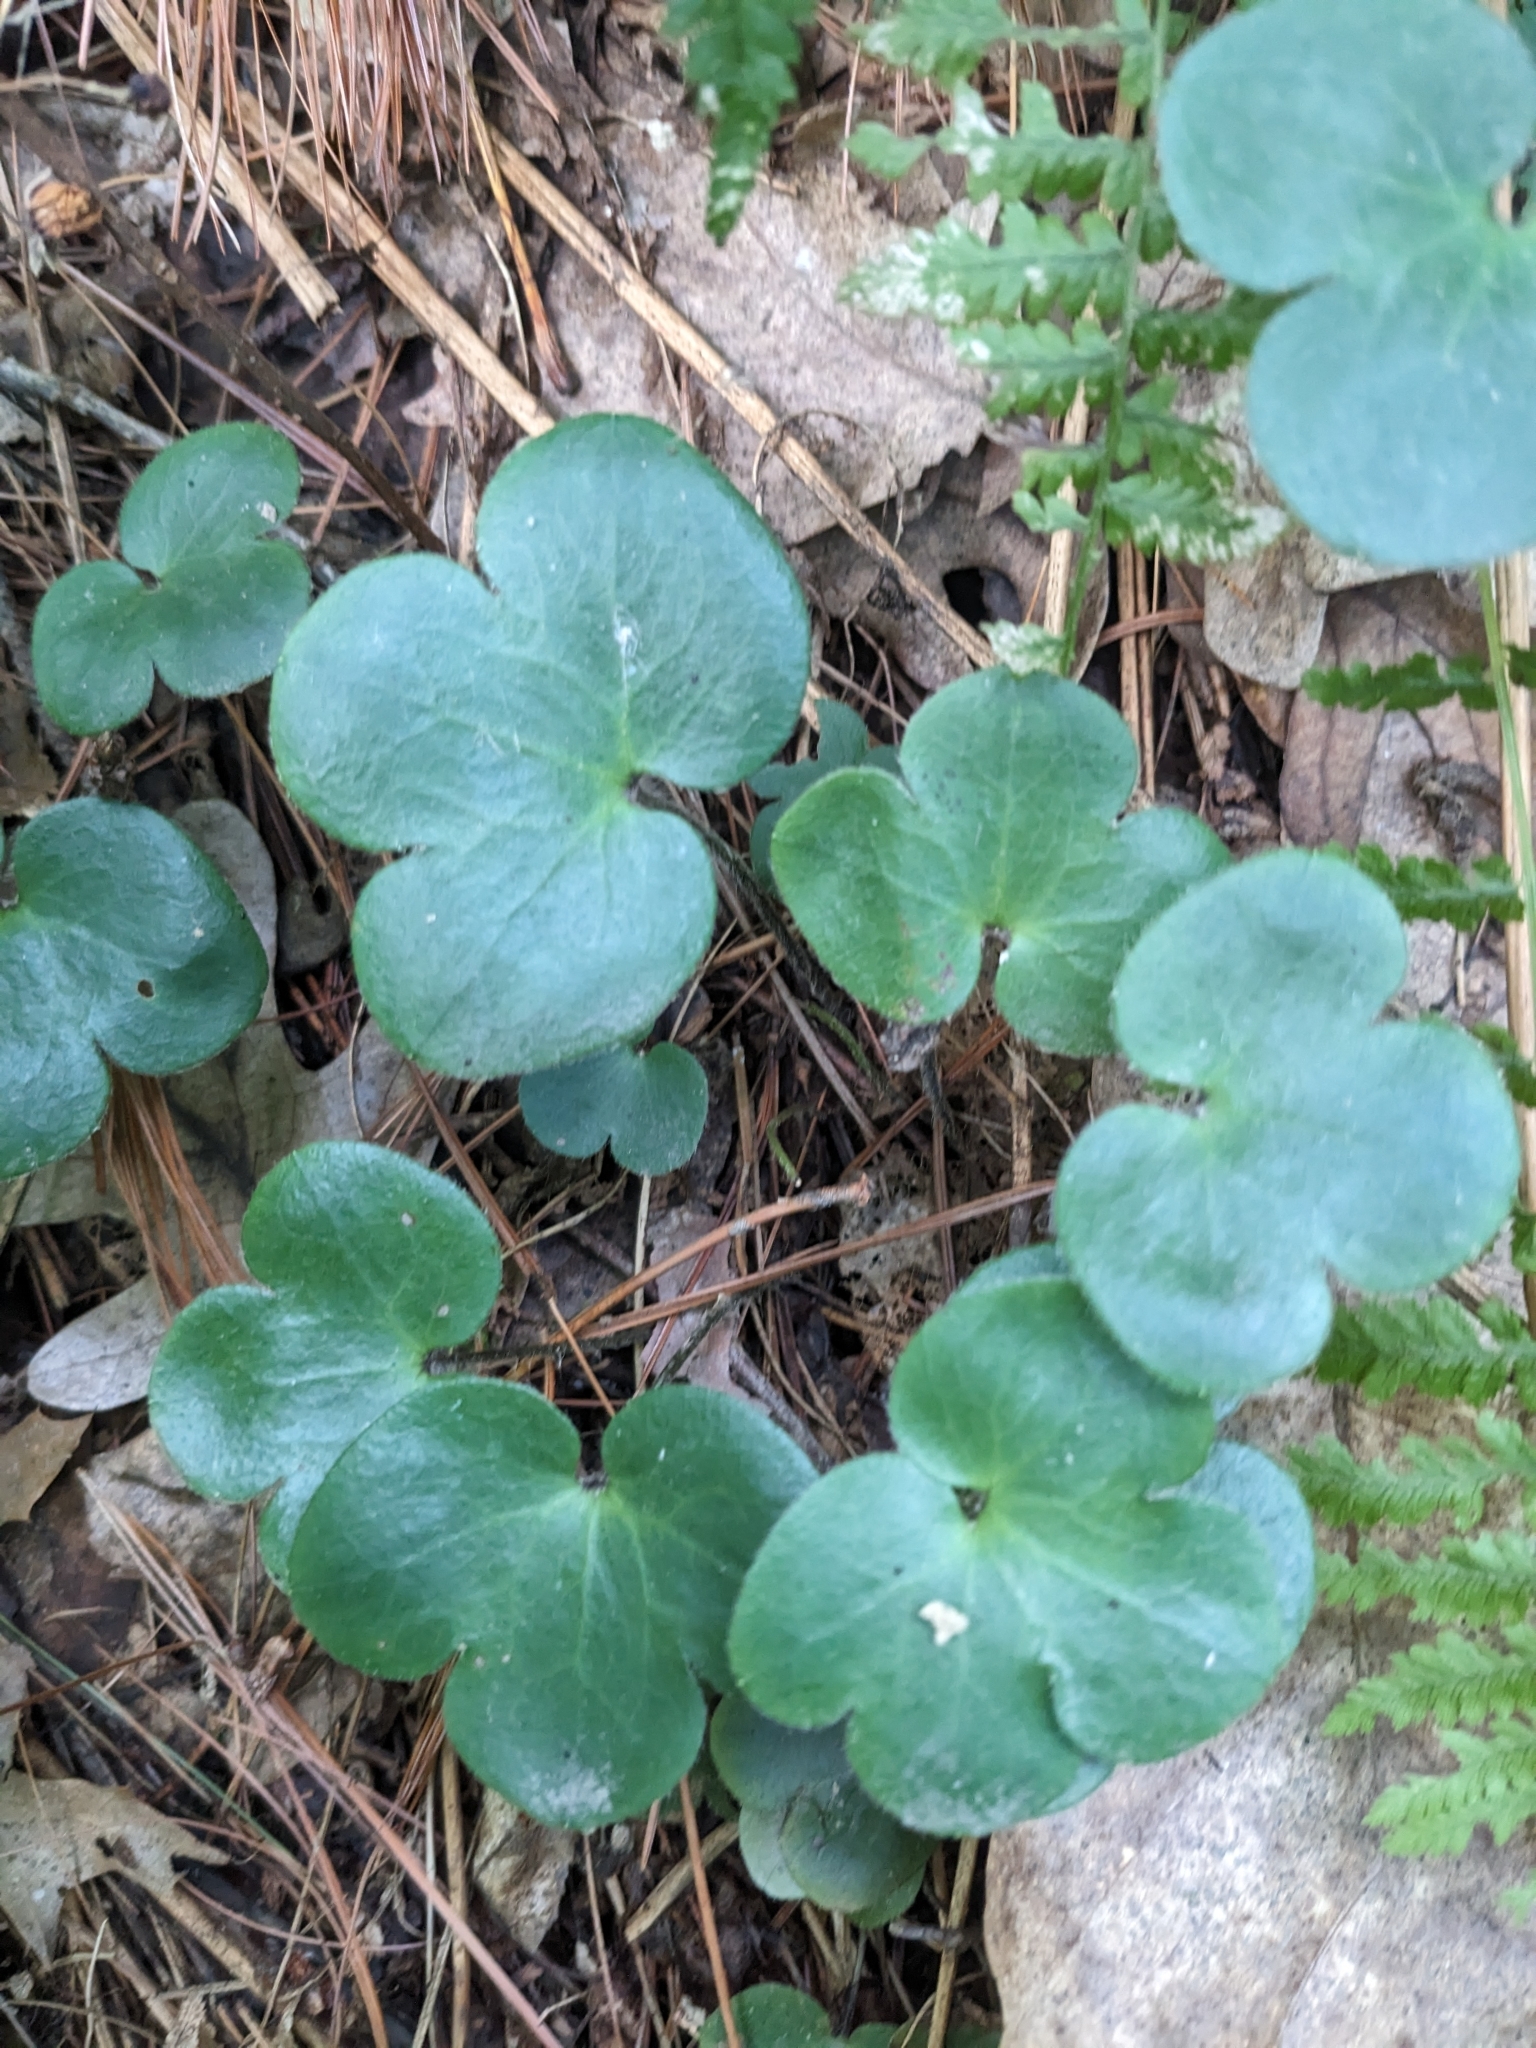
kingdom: Plantae
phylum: Tracheophyta
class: Magnoliopsida
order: Ranunculales
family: Ranunculaceae
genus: Hepatica
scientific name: Hepatica americana
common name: American hepatica
